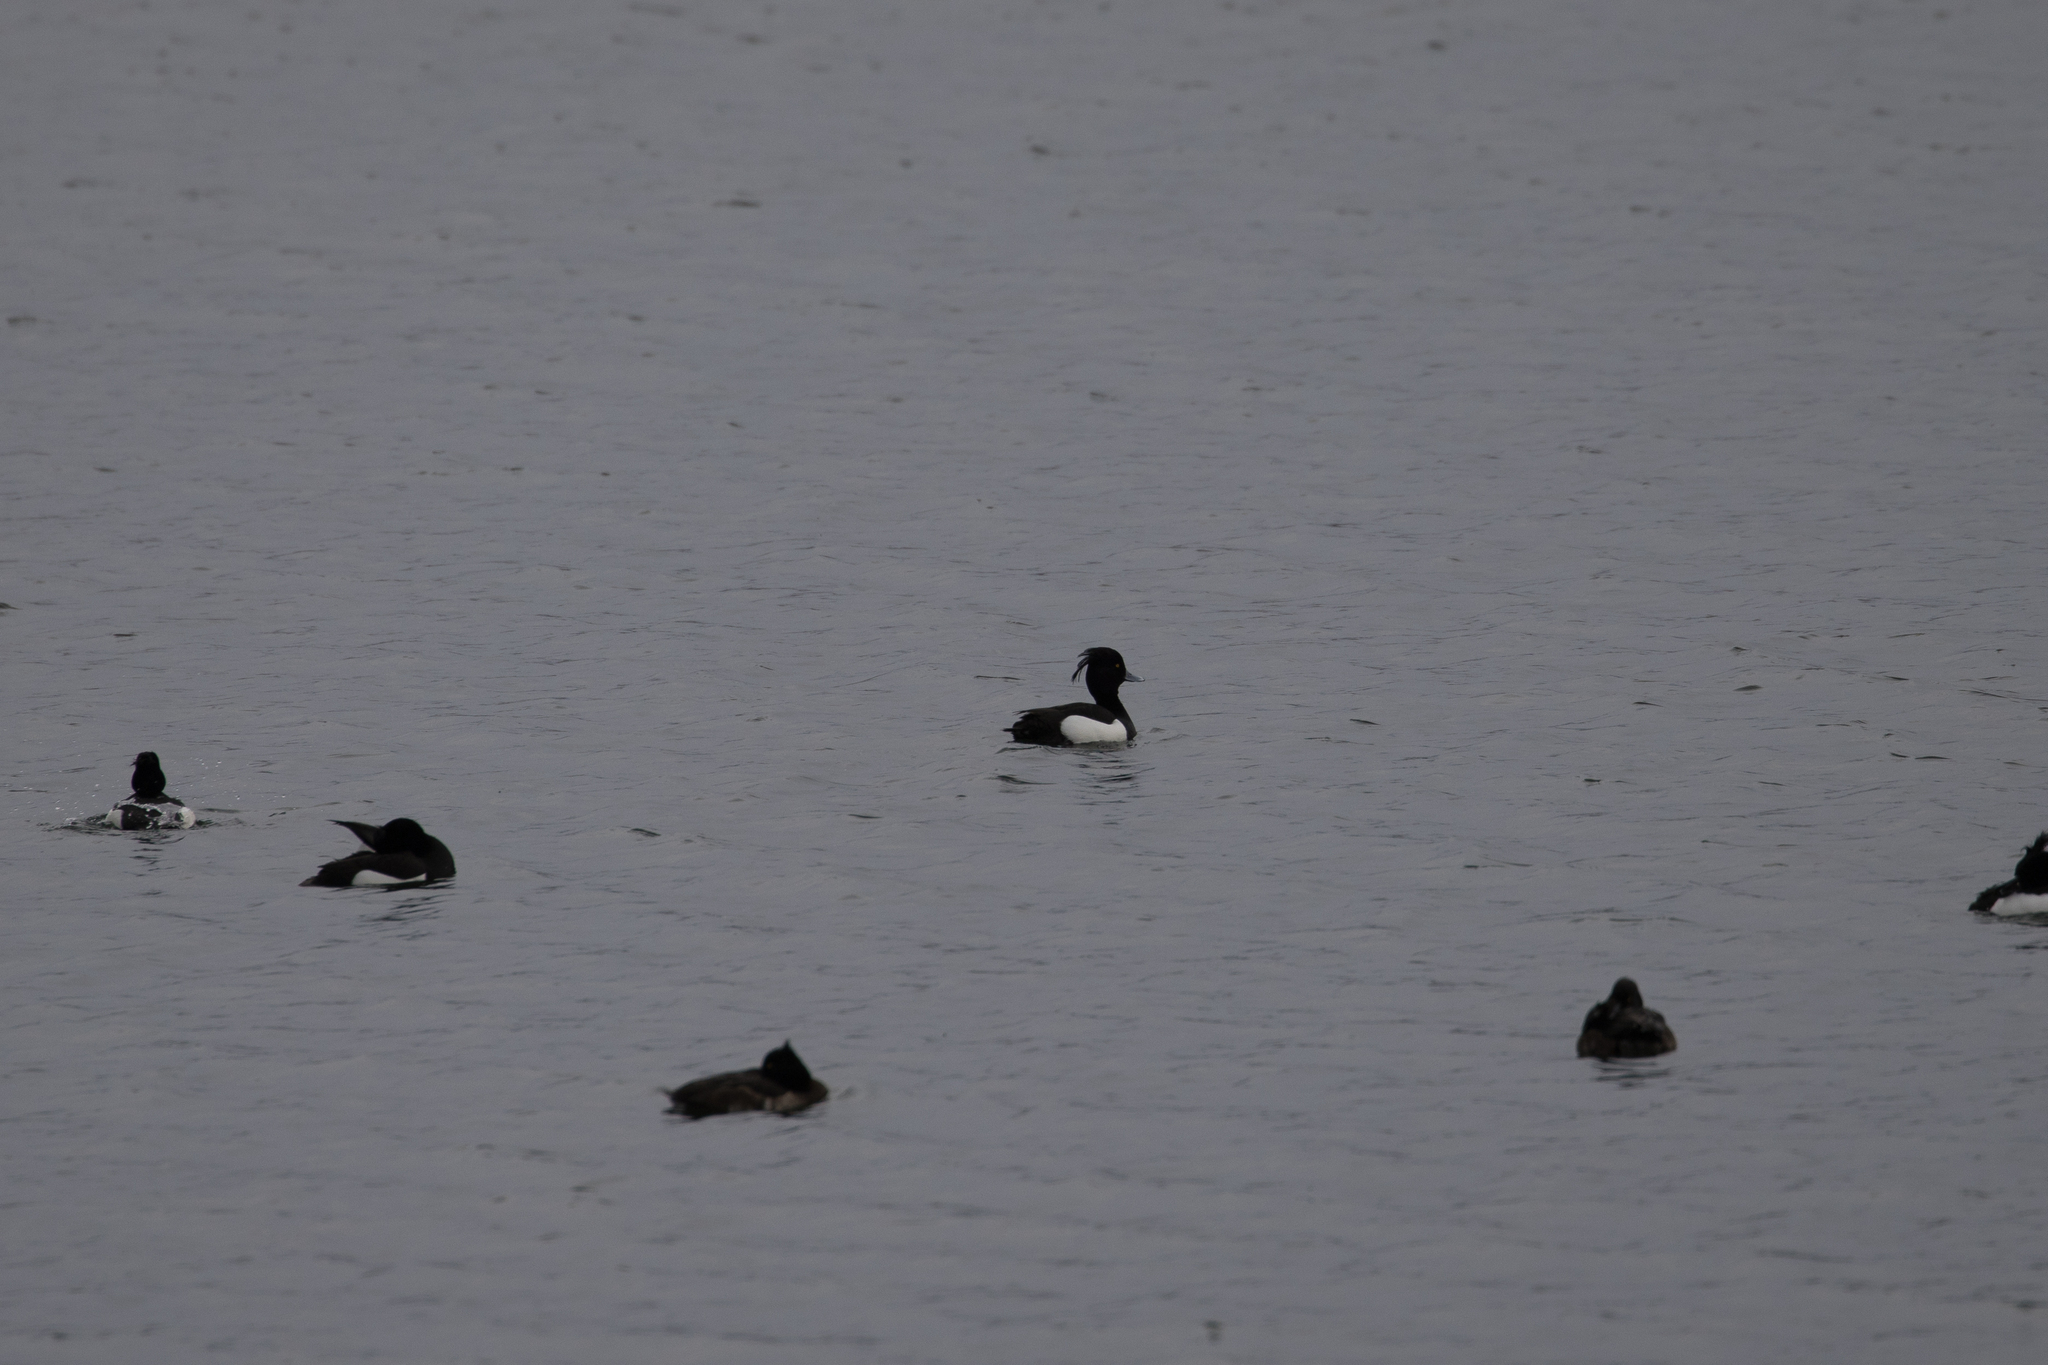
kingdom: Animalia
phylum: Chordata
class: Aves
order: Anseriformes
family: Anatidae
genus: Aythya
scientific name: Aythya fuligula
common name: Tufted duck
